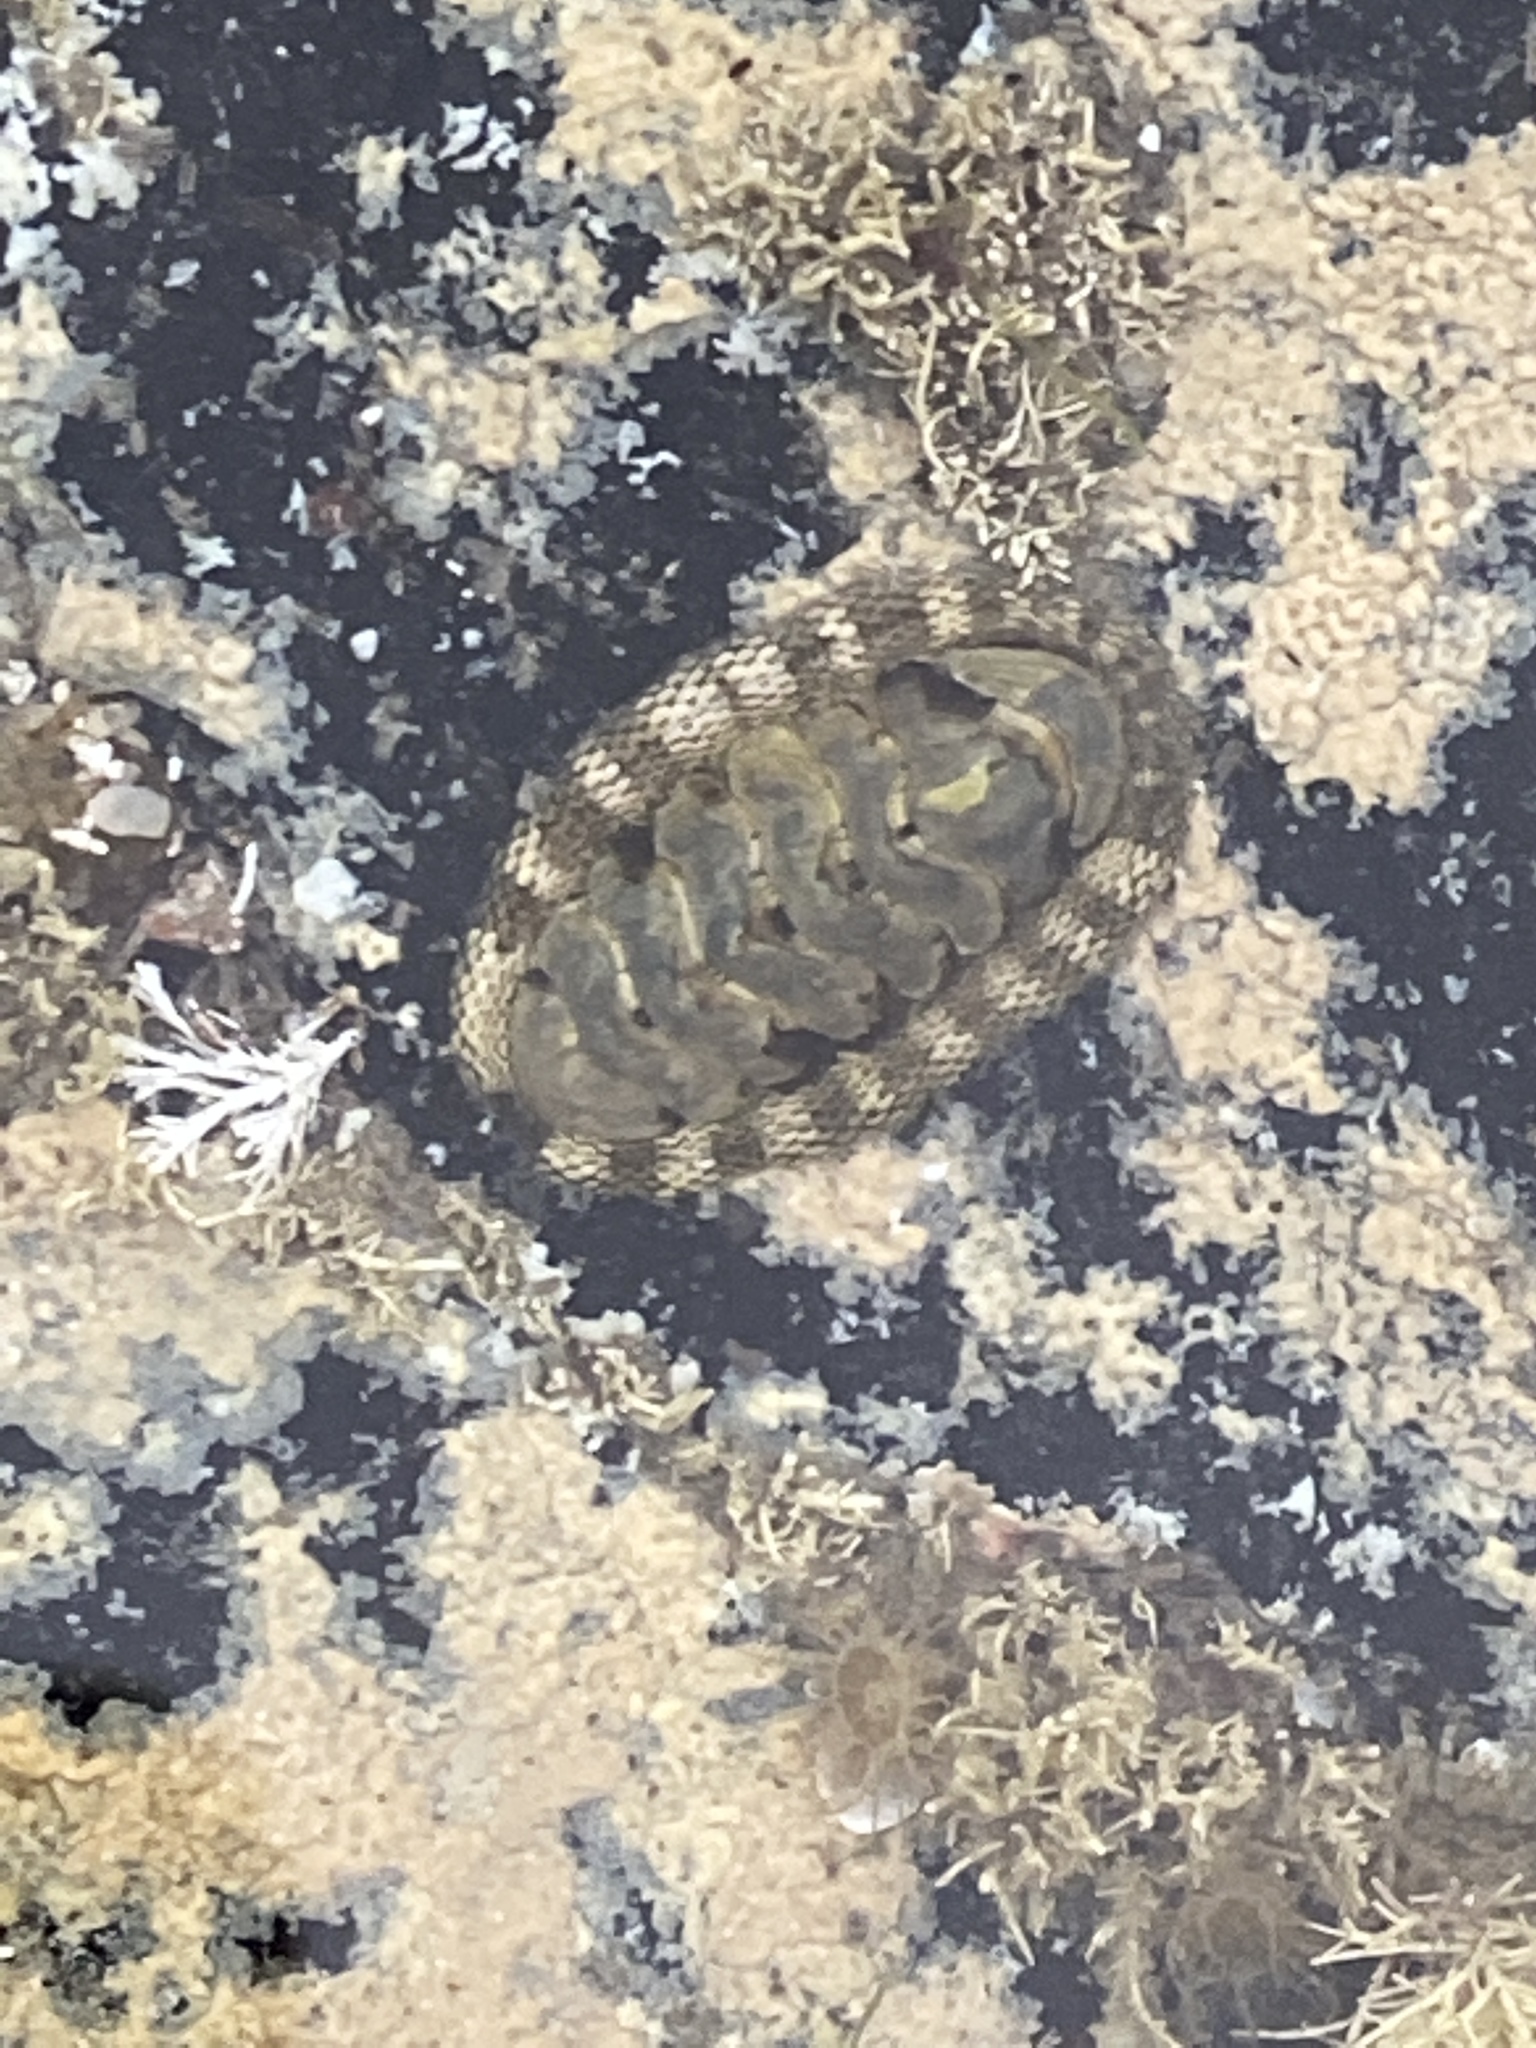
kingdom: Animalia
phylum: Mollusca
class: Polyplacophora
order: Chitonida
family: Chitonidae
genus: Sypharochiton
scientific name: Sypharochiton pelliserpentis
